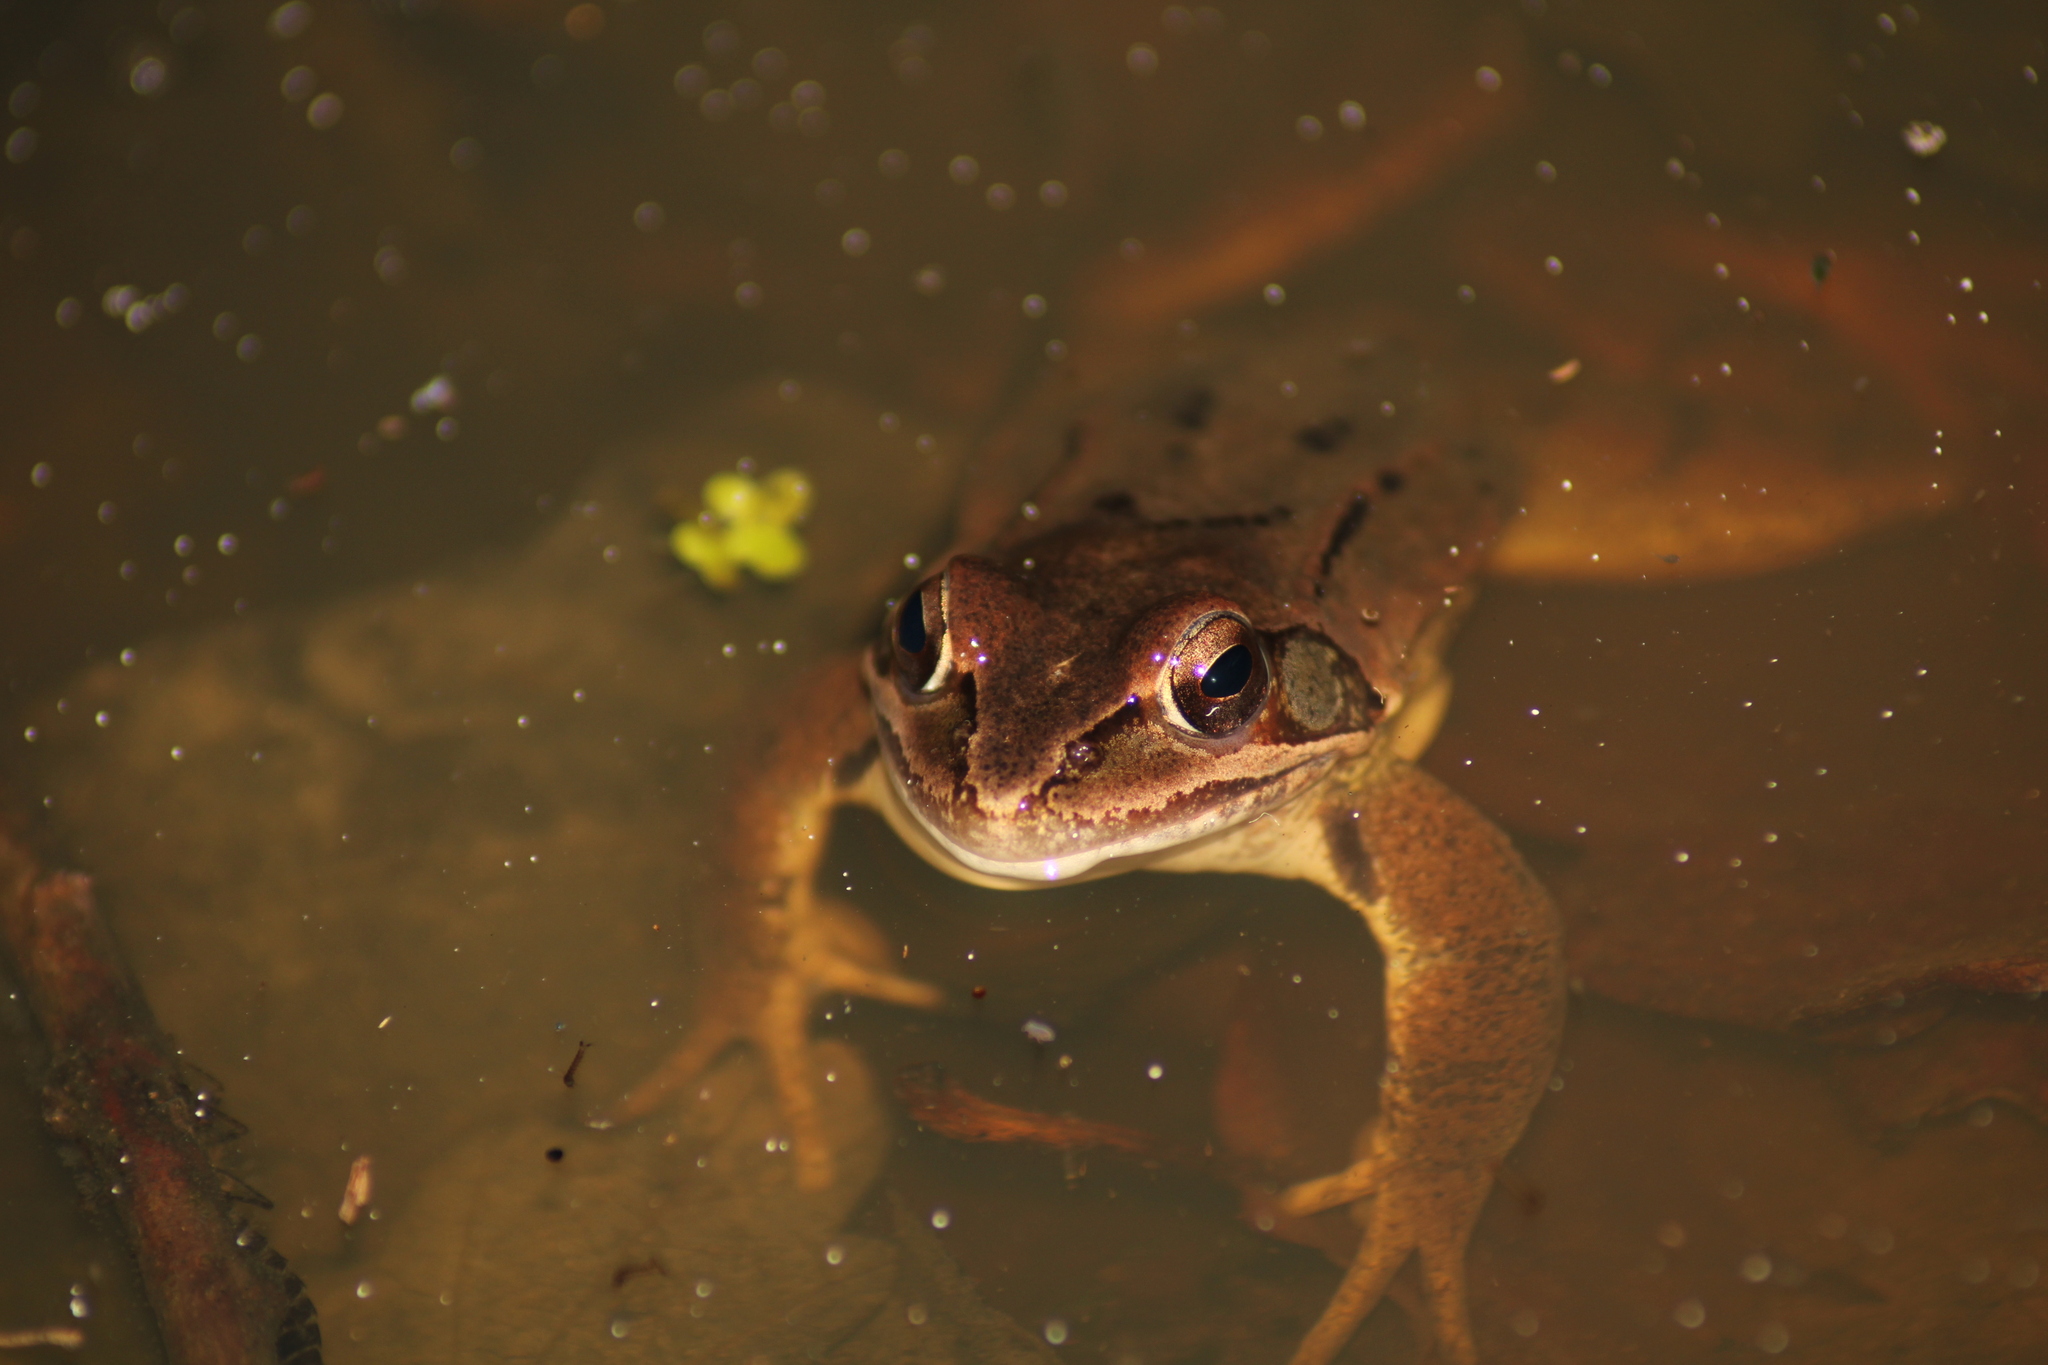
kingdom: Animalia
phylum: Chordata
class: Amphibia
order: Anura
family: Ranidae
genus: Rana
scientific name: Rana dalmatina
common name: Agile frog
